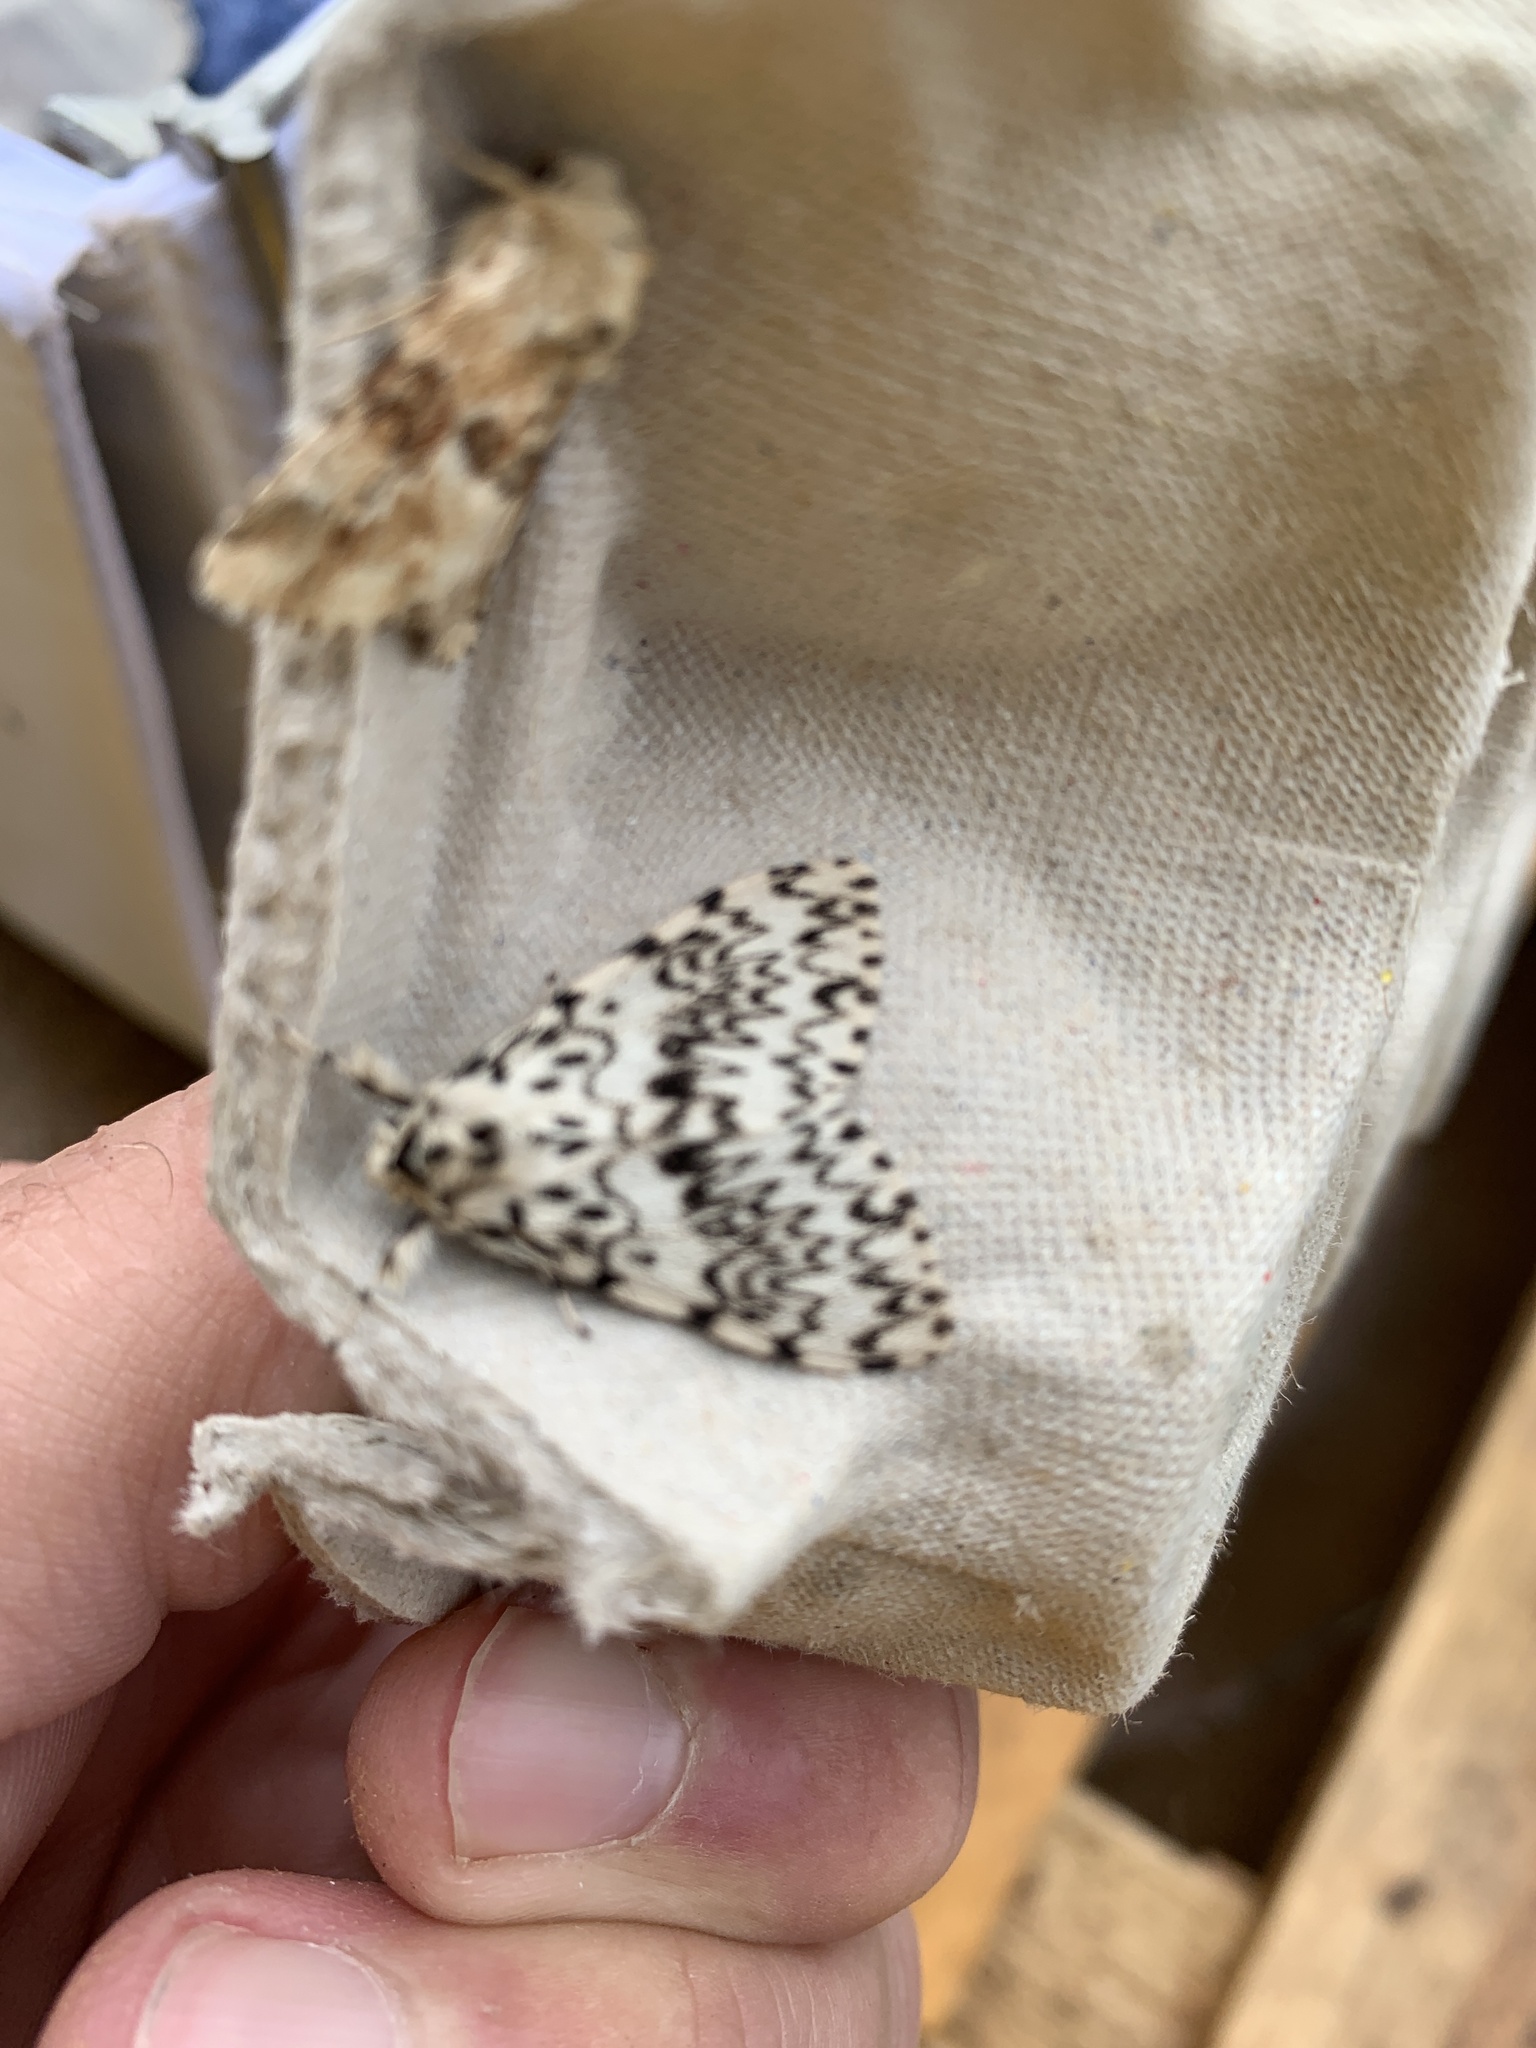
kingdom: Animalia
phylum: Arthropoda
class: Insecta
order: Lepidoptera
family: Erebidae
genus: Lymantria
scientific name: Lymantria monacha
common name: Black arches
